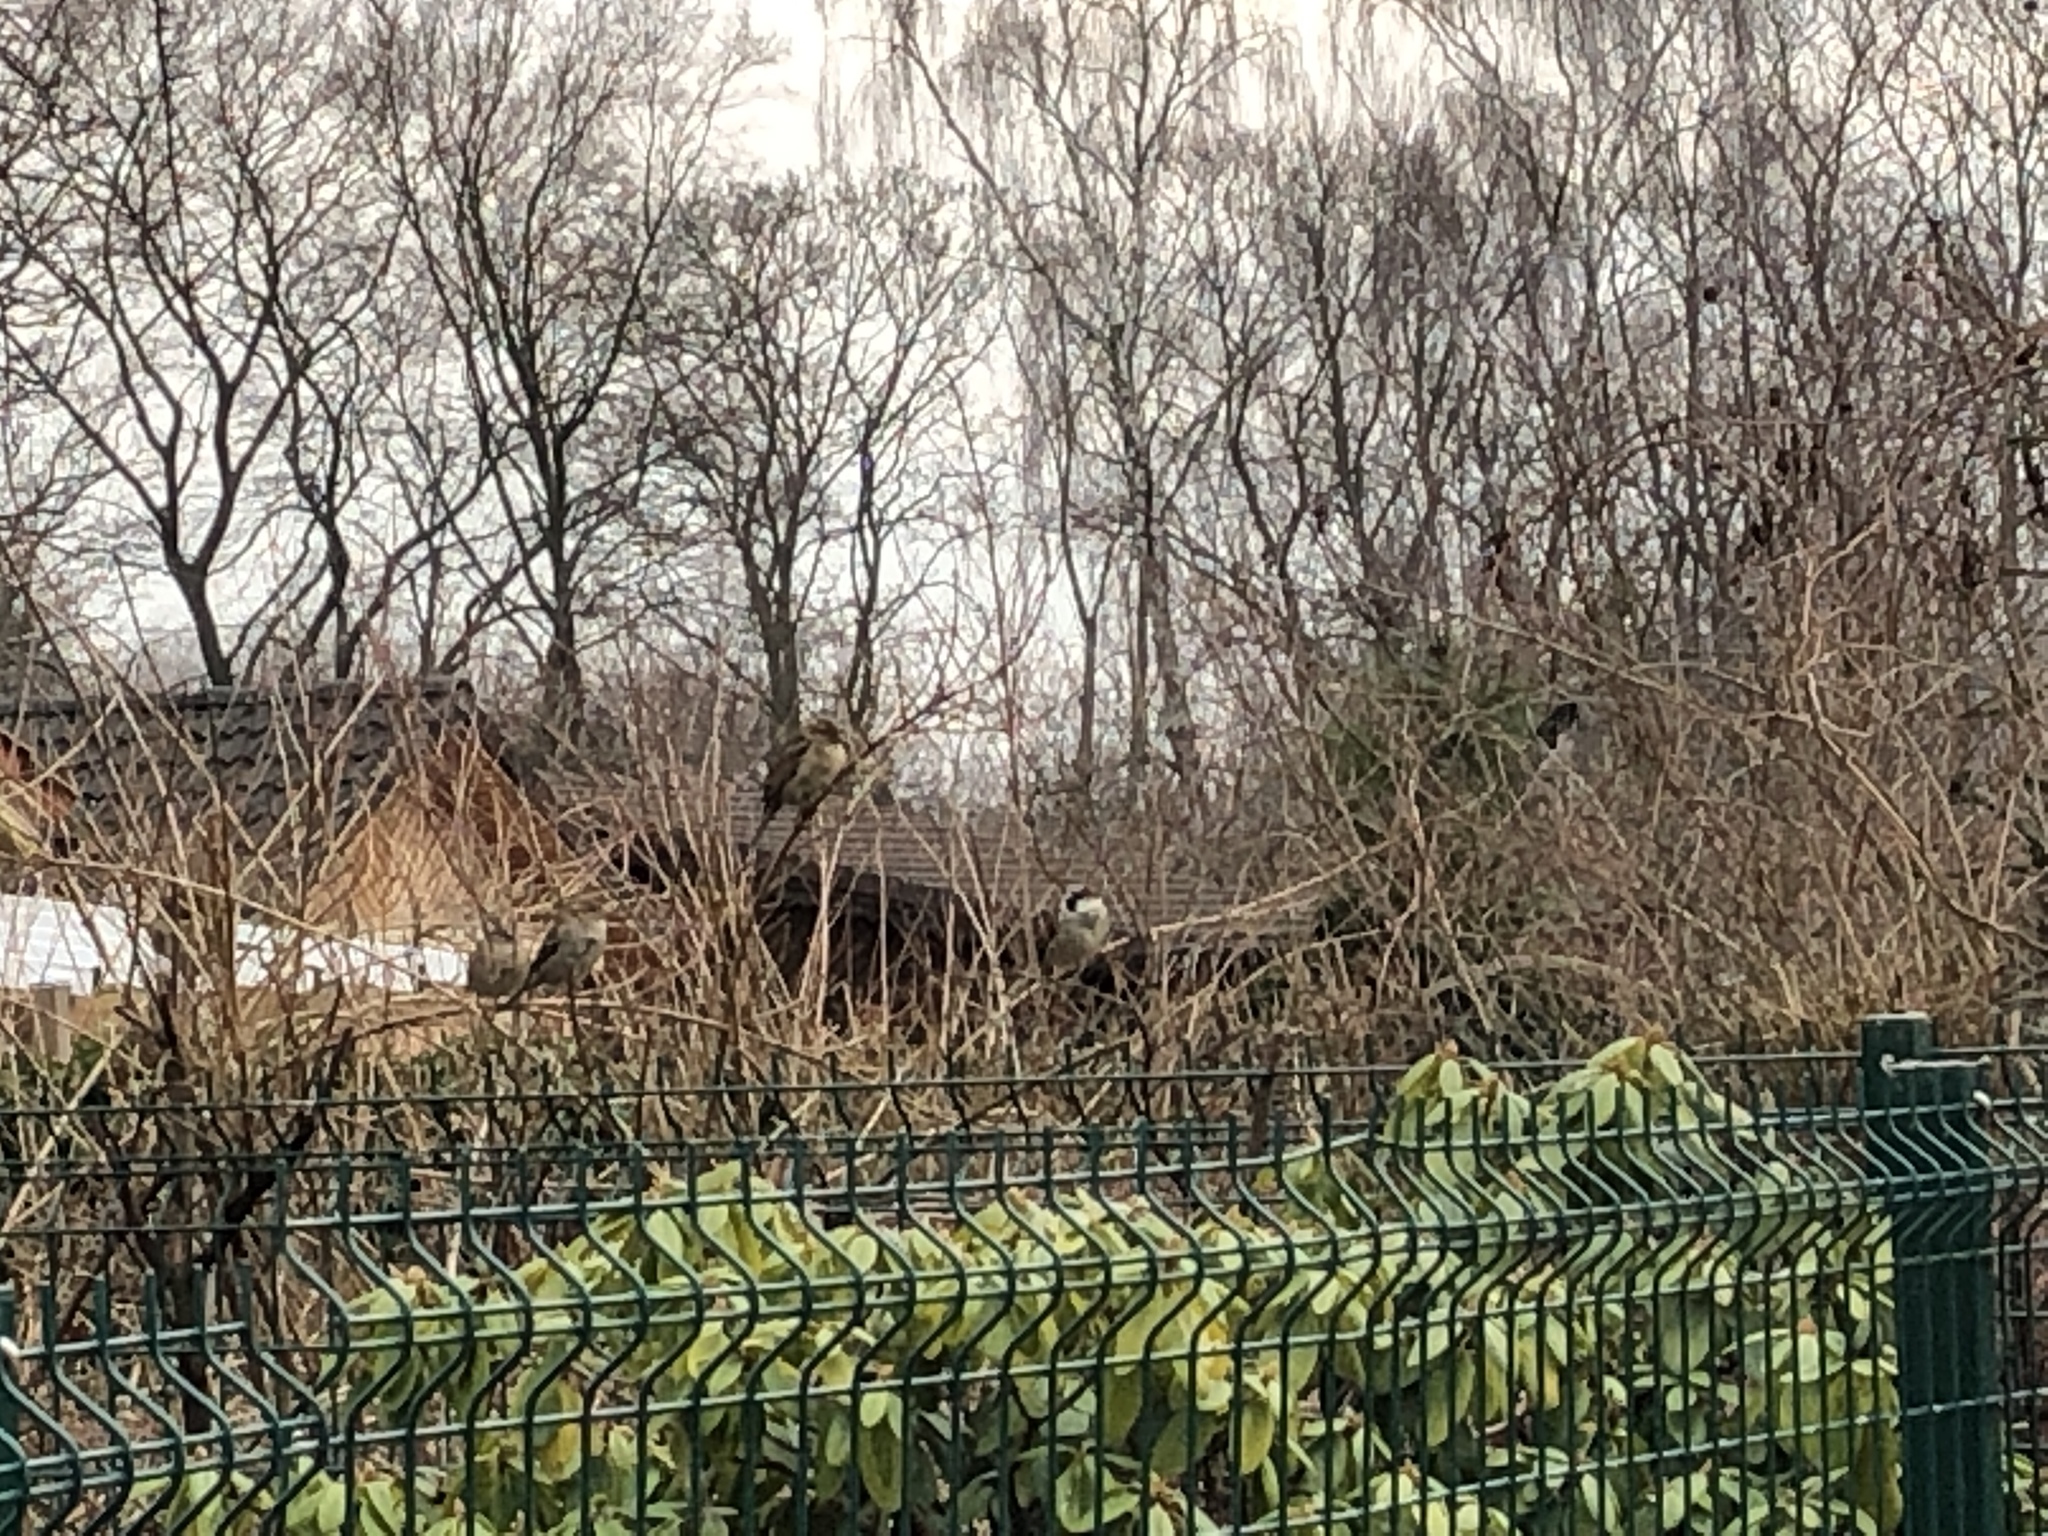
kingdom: Animalia
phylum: Chordata
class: Aves
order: Passeriformes
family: Passeridae
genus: Passer
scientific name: Passer domesticus
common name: House sparrow
